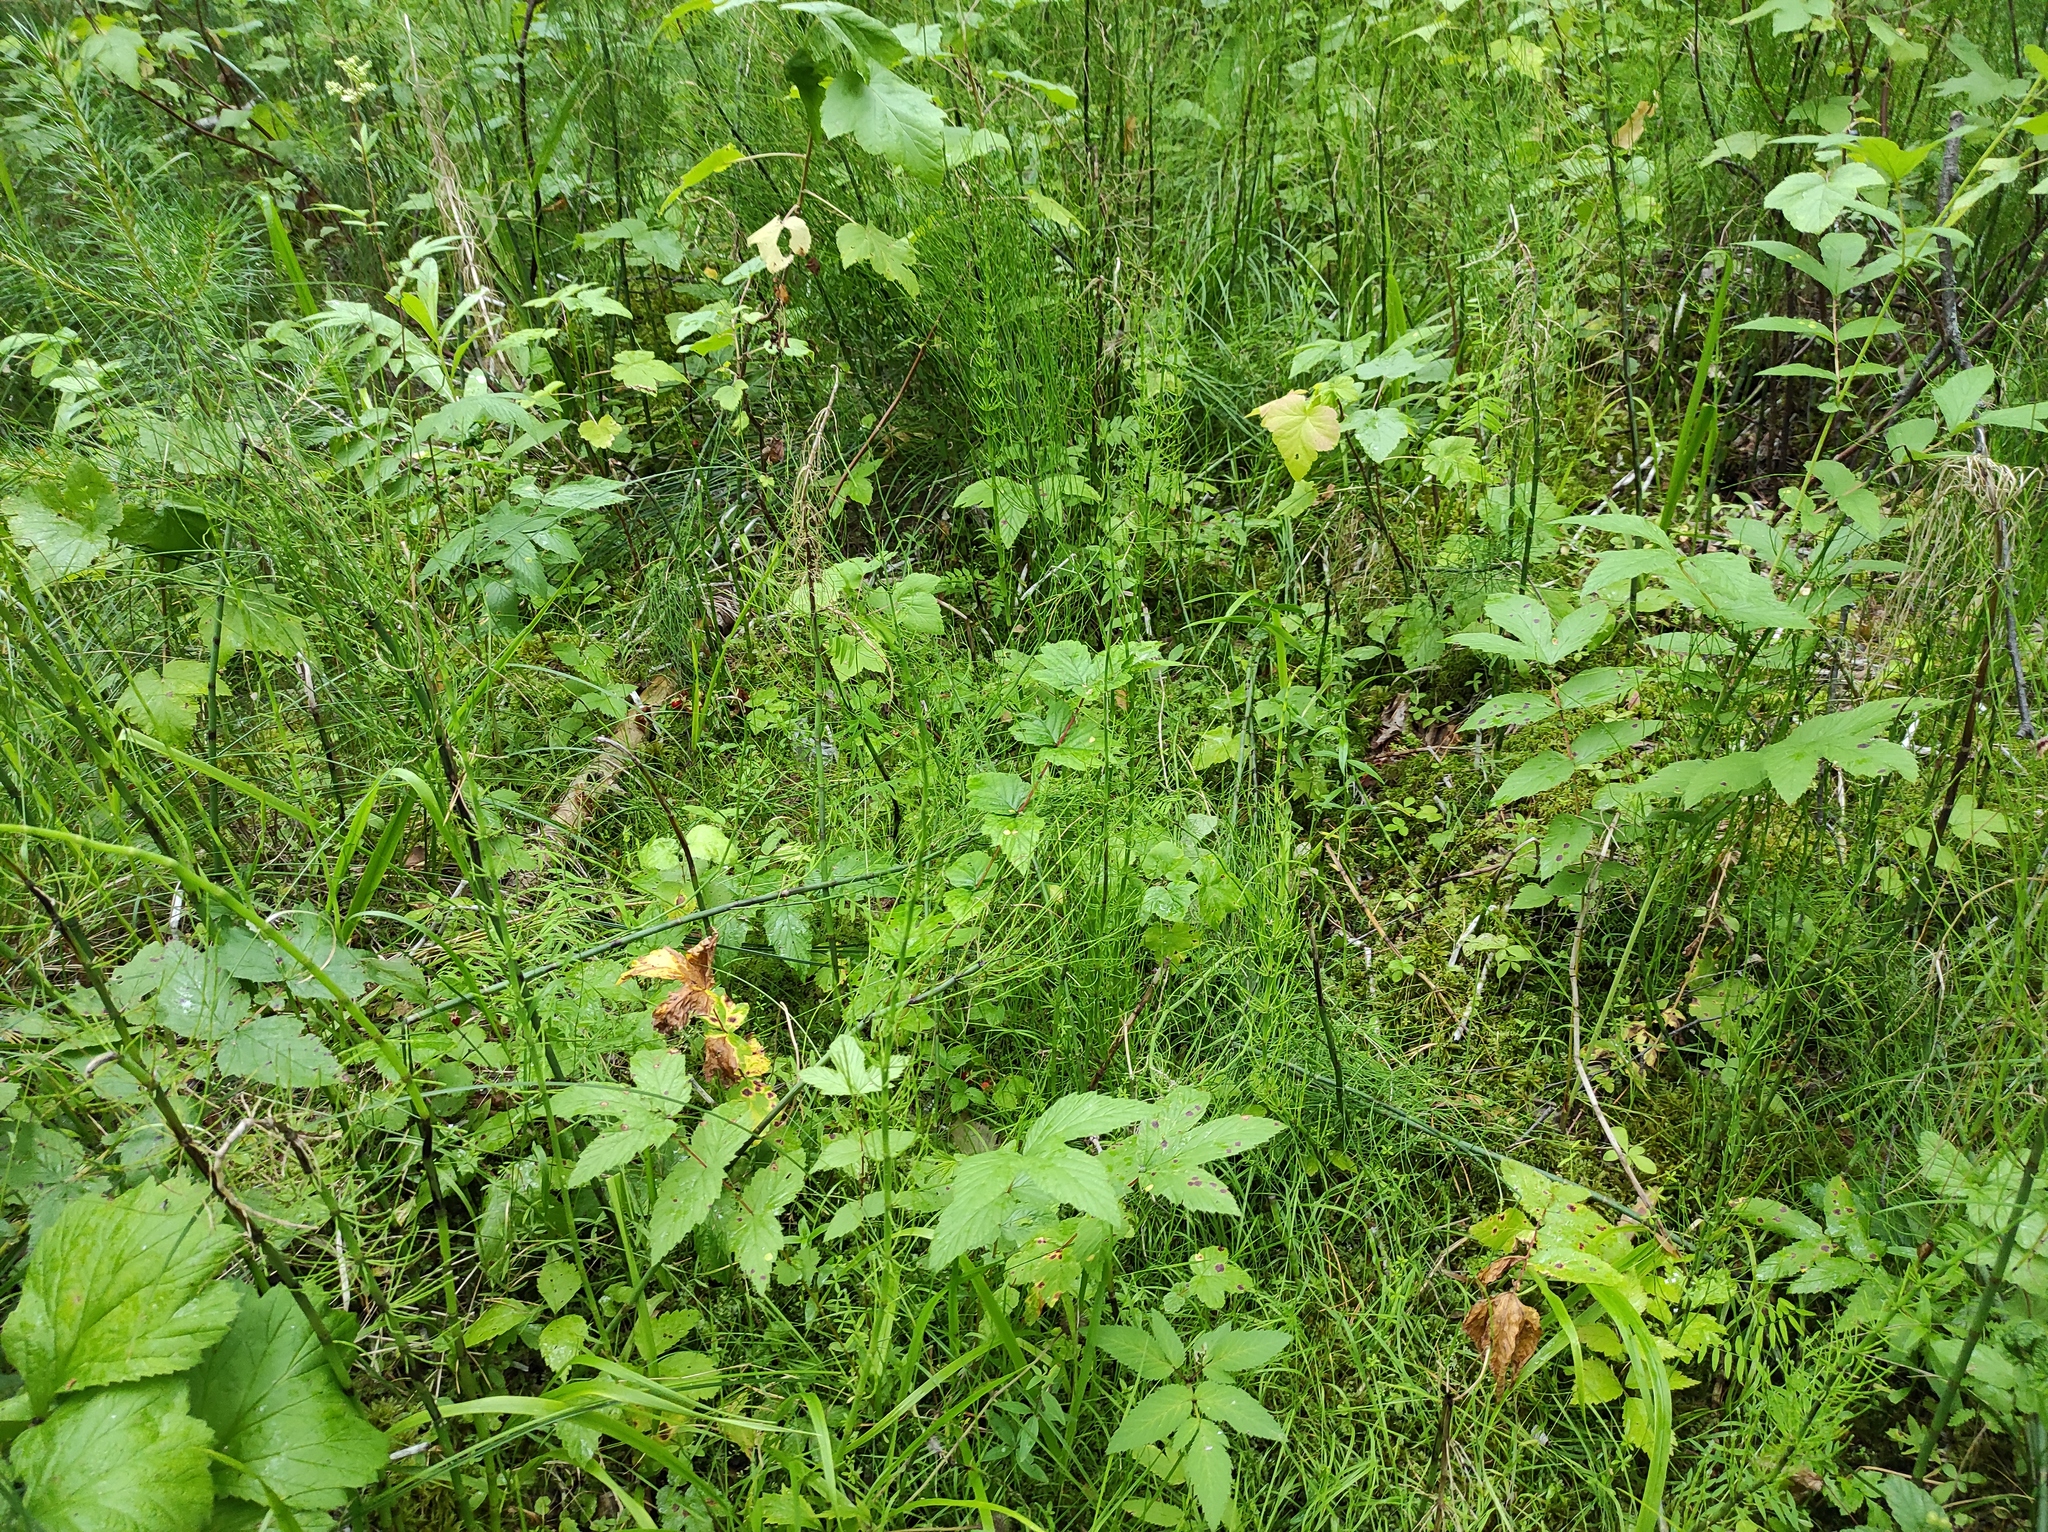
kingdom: Plantae
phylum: Tracheophyta
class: Polypodiopsida
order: Equisetales
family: Equisetaceae
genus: Equisetum
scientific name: Equisetum fluviatile
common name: Water horsetail
